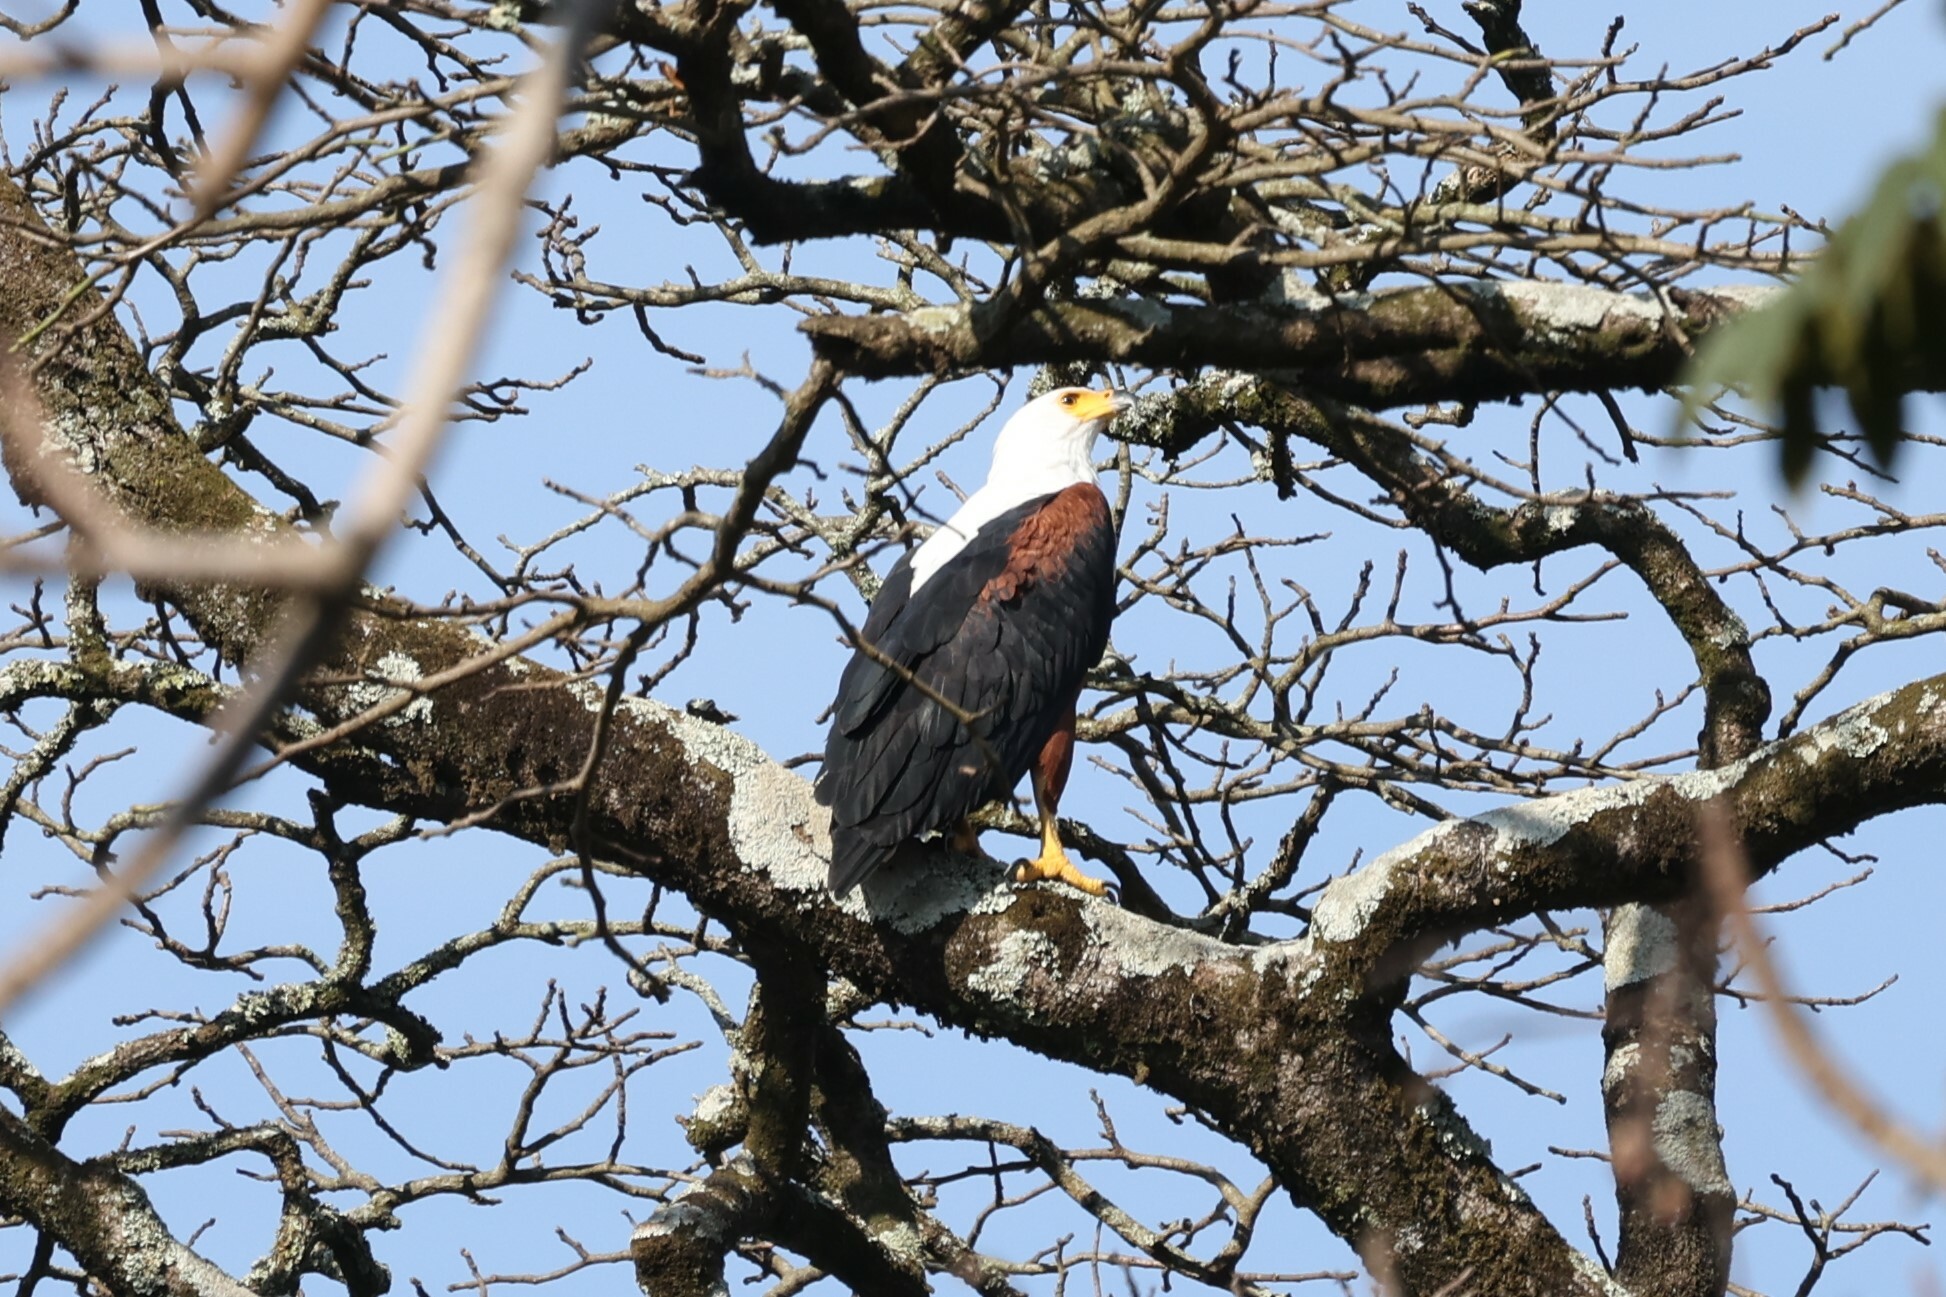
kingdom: Animalia
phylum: Chordata
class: Aves
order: Accipitriformes
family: Accipitridae
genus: Haliaeetus
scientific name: Haliaeetus vocifer
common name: African fish eagle
